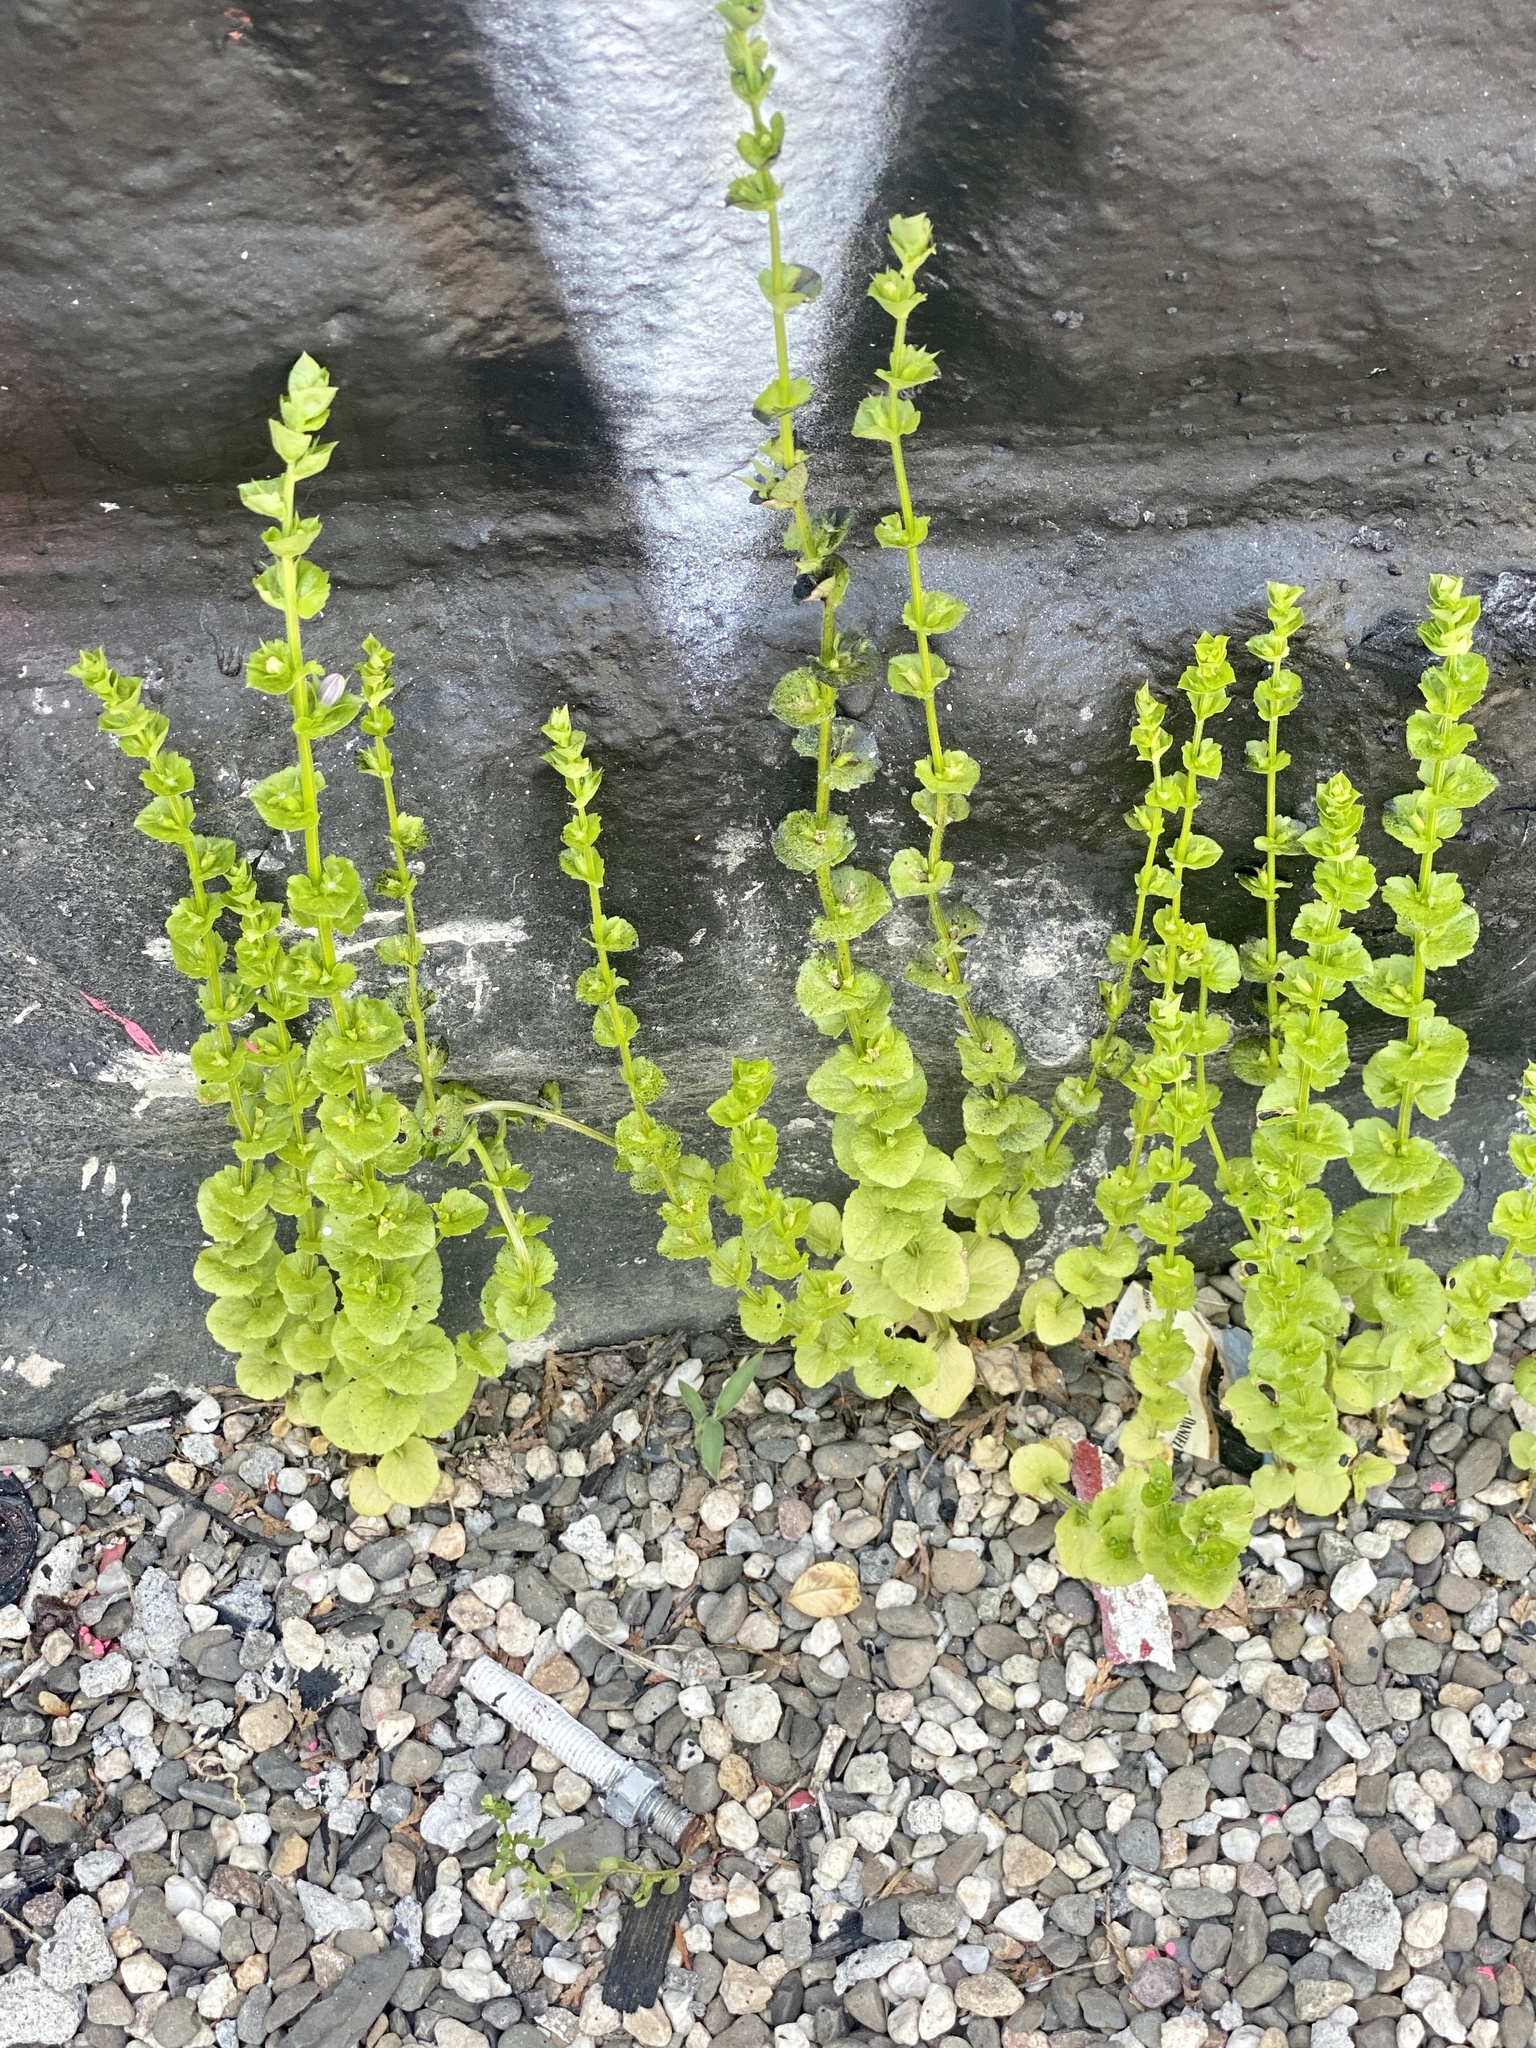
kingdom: Plantae
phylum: Tracheophyta
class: Magnoliopsida
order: Asterales
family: Campanulaceae
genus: Triodanis
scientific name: Triodanis perfoliata
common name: Clasping venus' looking-glass
